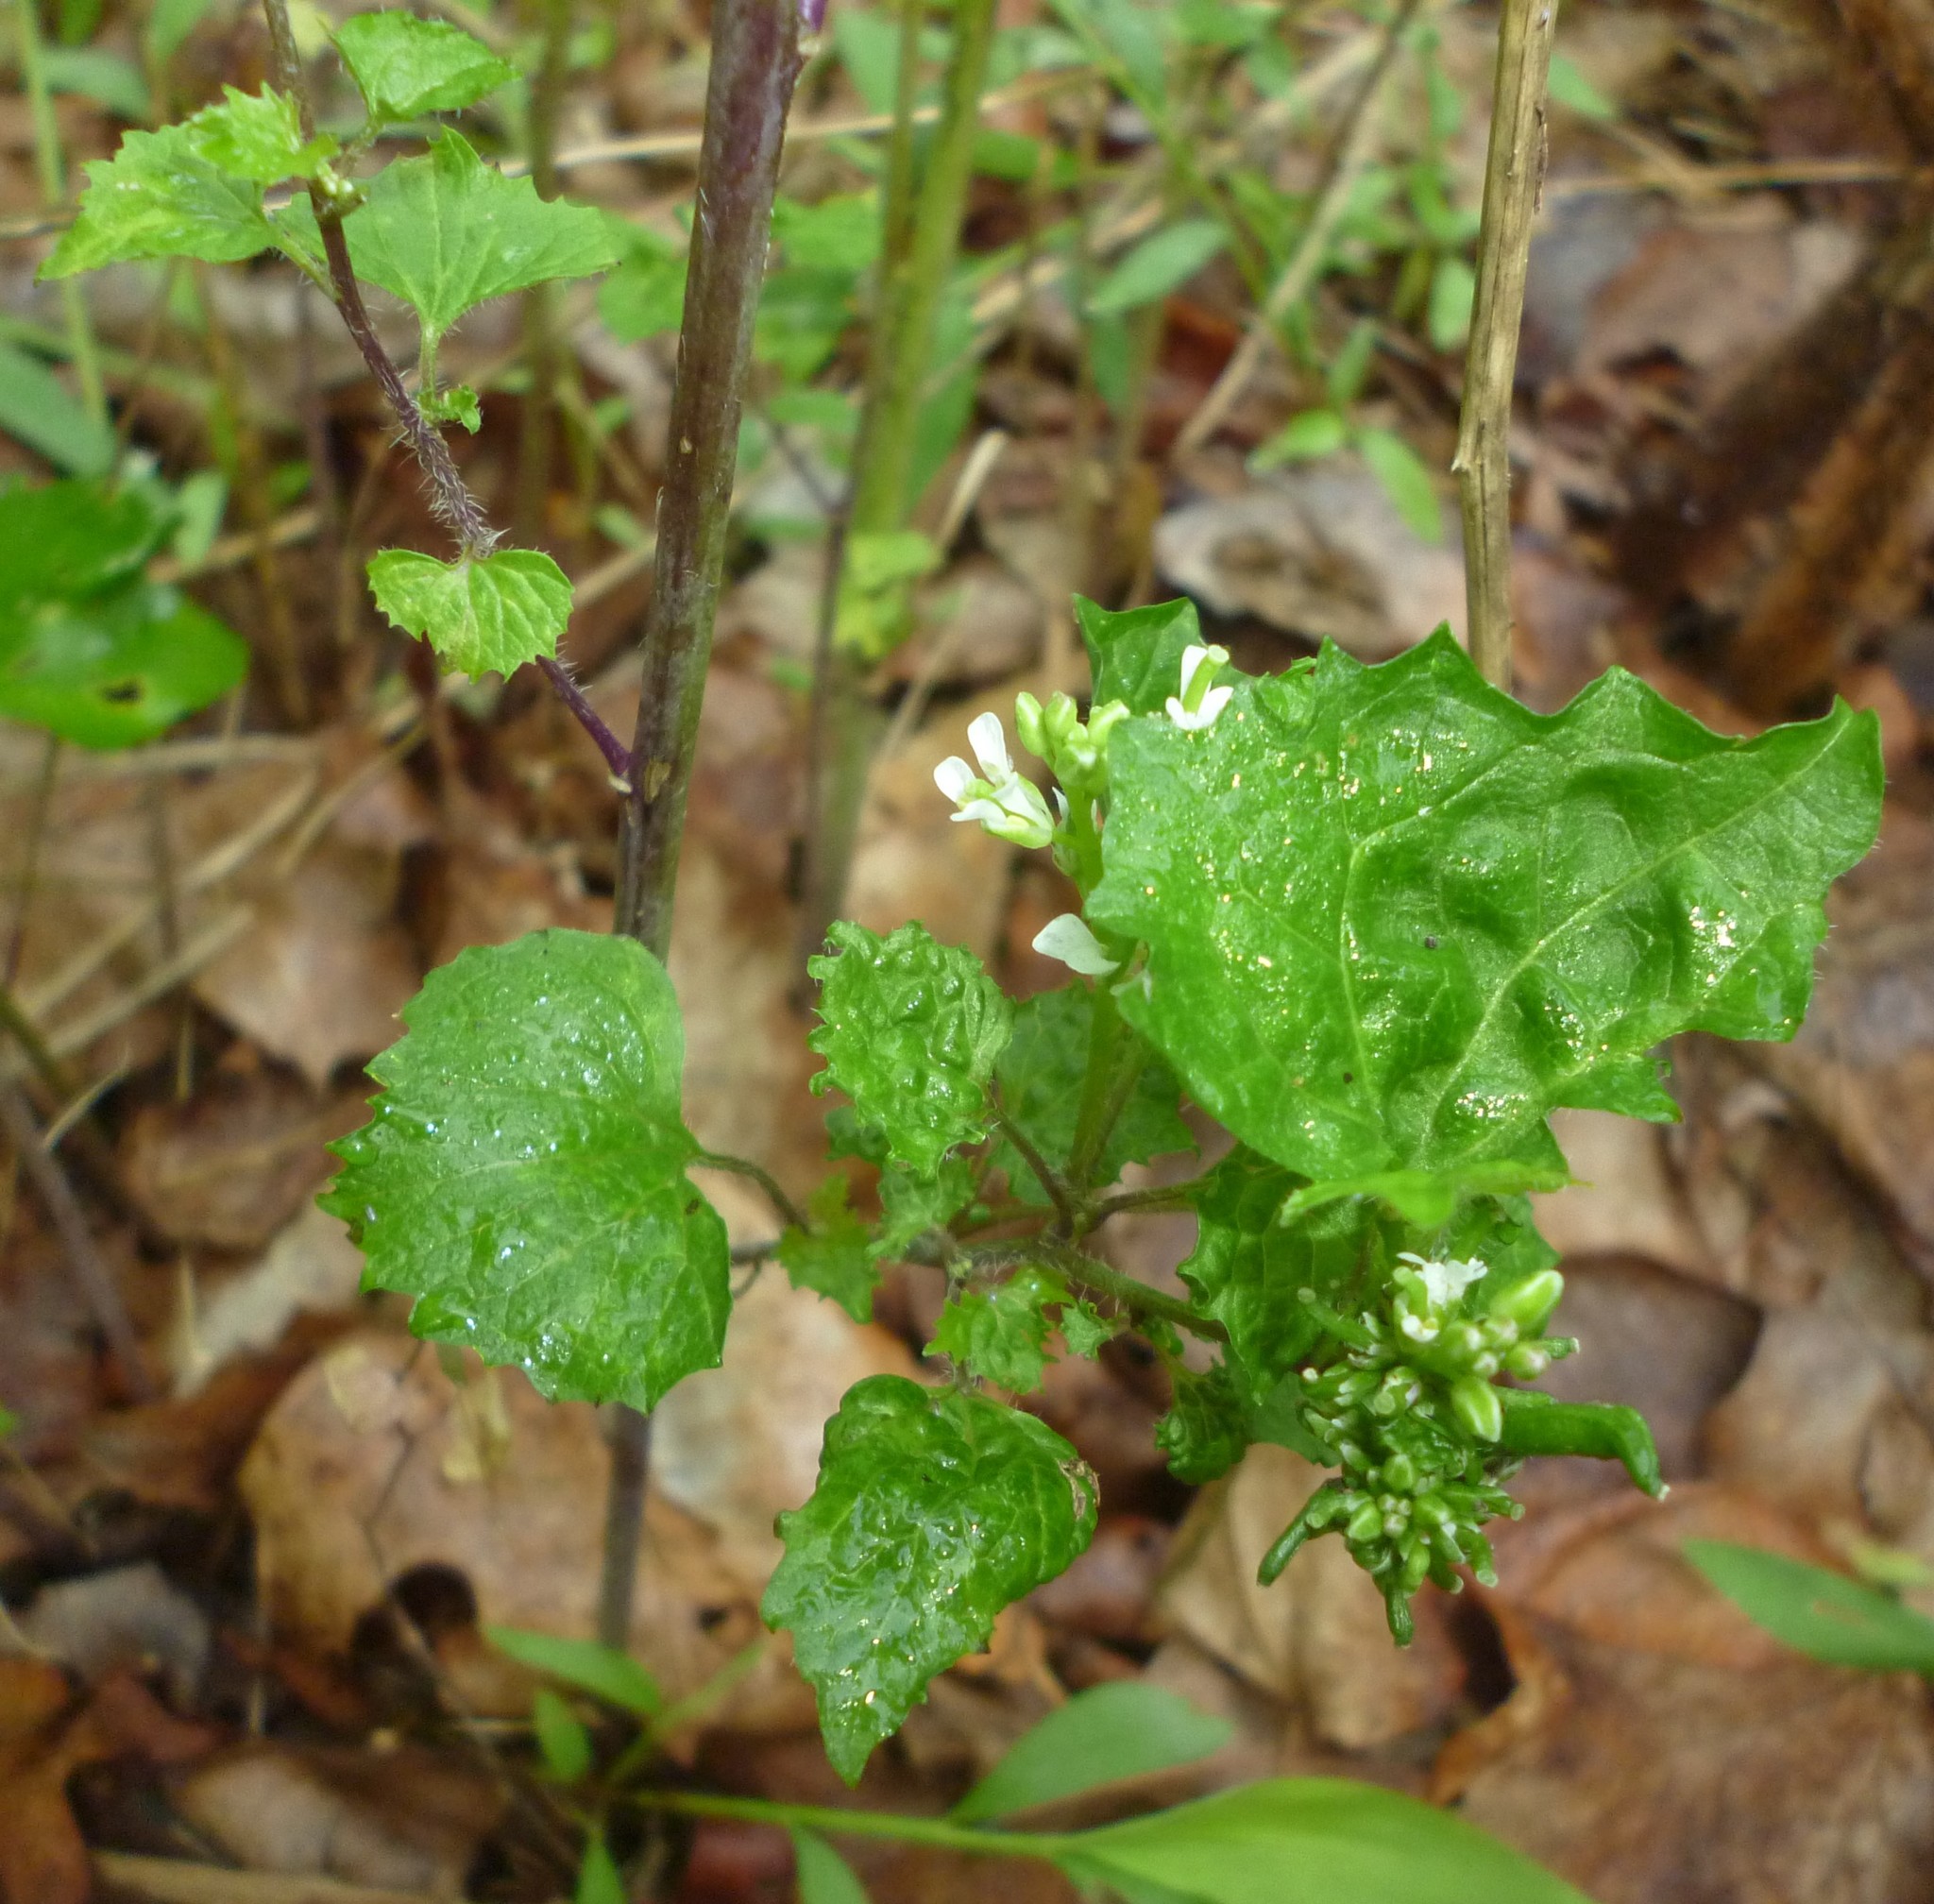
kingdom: Plantae
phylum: Tracheophyta
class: Magnoliopsida
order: Brassicales
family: Brassicaceae
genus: Alliaria
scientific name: Alliaria petiolata
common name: Garlic mustard
